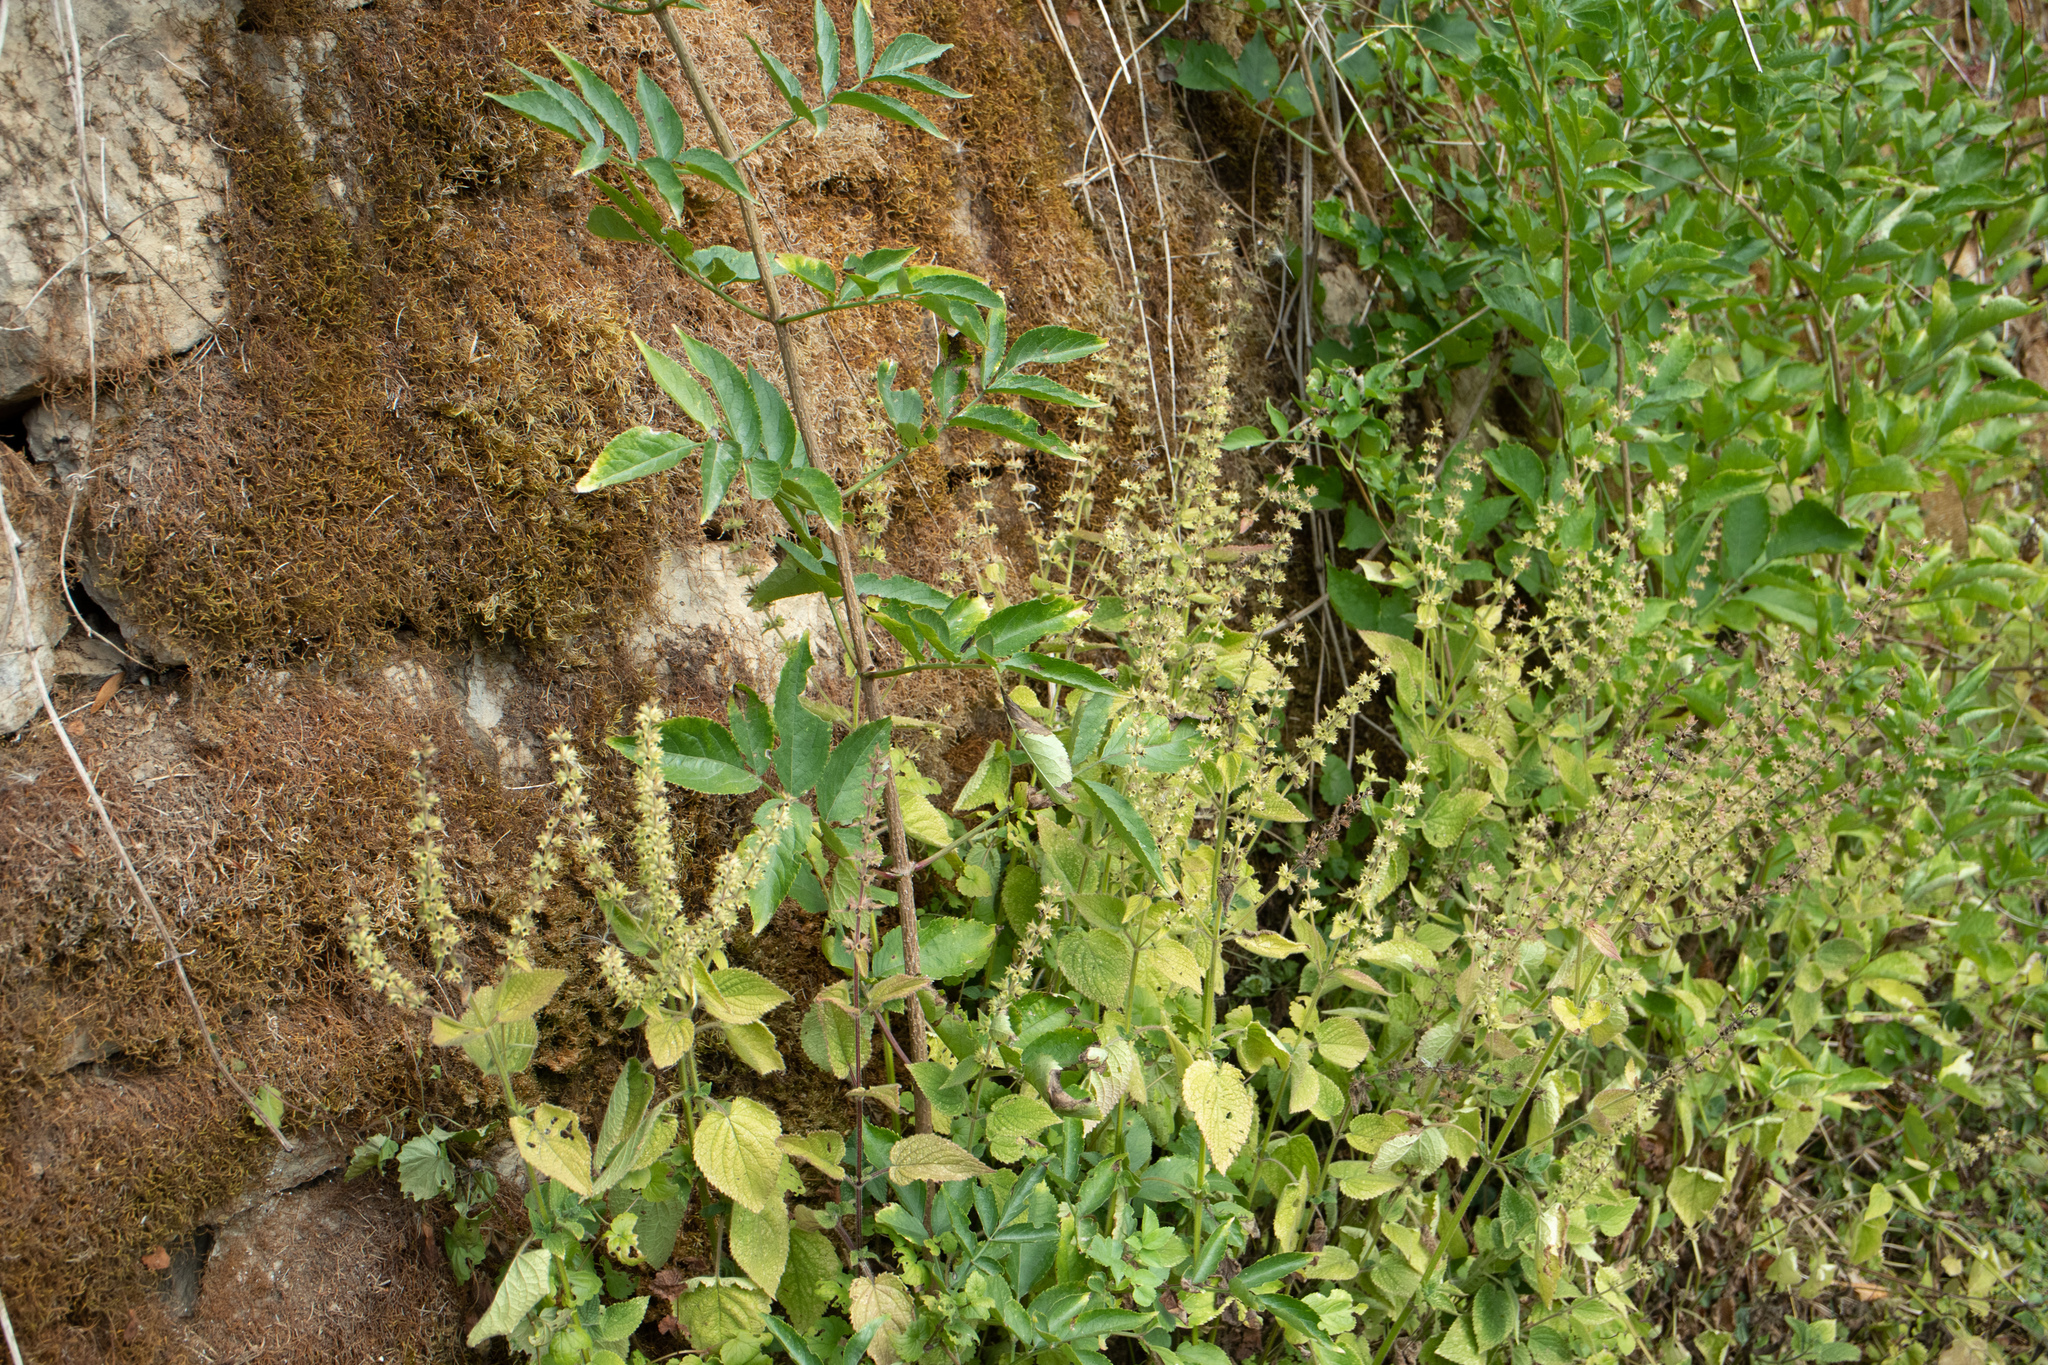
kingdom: Plantae
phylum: Tracheophyta
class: Magnoliopsida
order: Lamiales
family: Lamiaceae
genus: Teucrium
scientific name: Teucrium scorodonia
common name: Woodland germander
